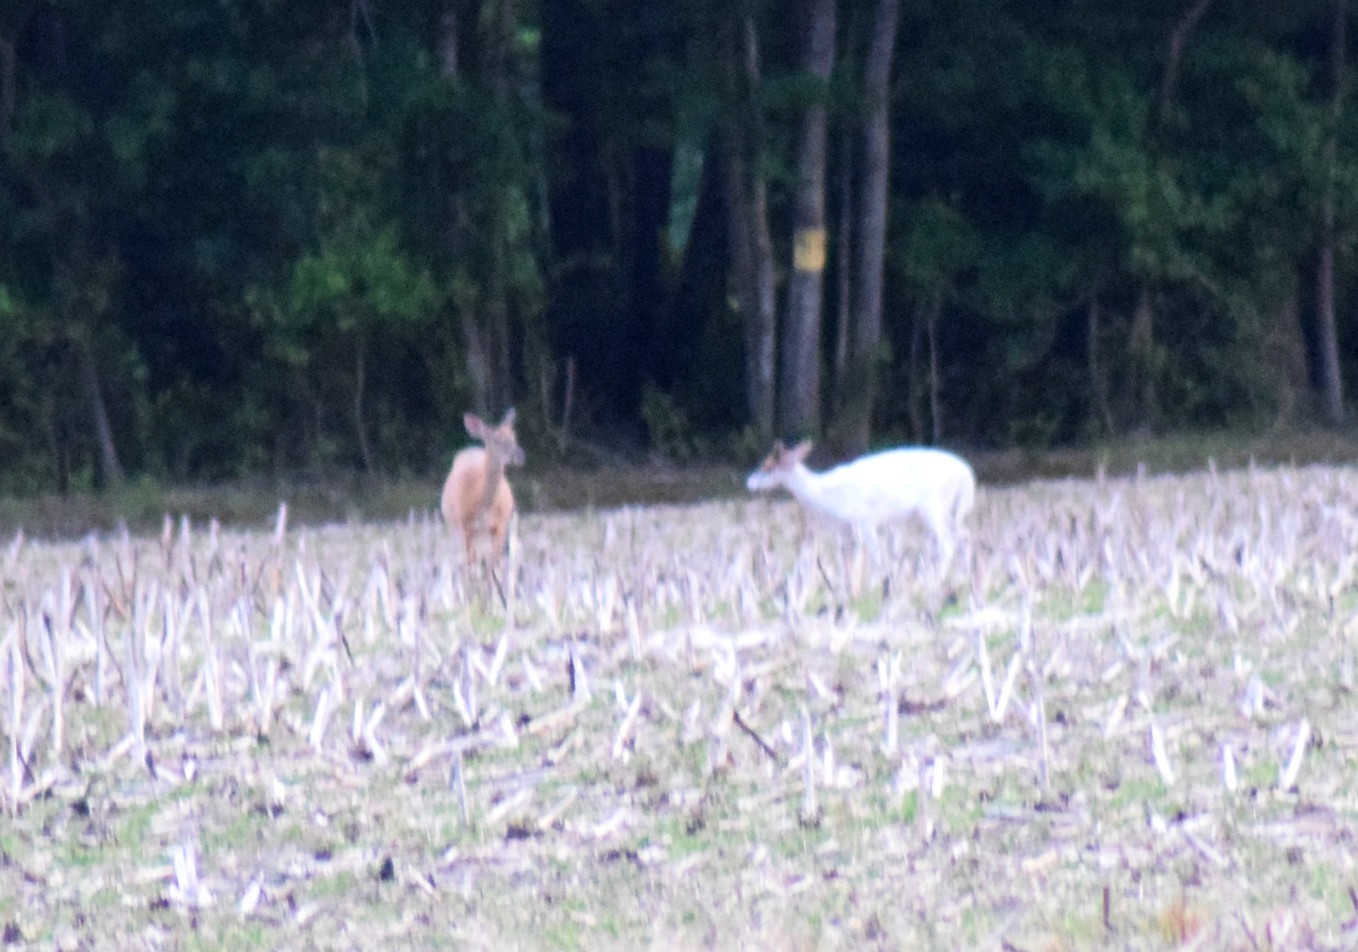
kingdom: Animalia
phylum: Chordata
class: Mammalia
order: Artiodactyla
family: Cervidae
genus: Odocoileus
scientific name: Odocoileus virginianus
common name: White-tailed deer
